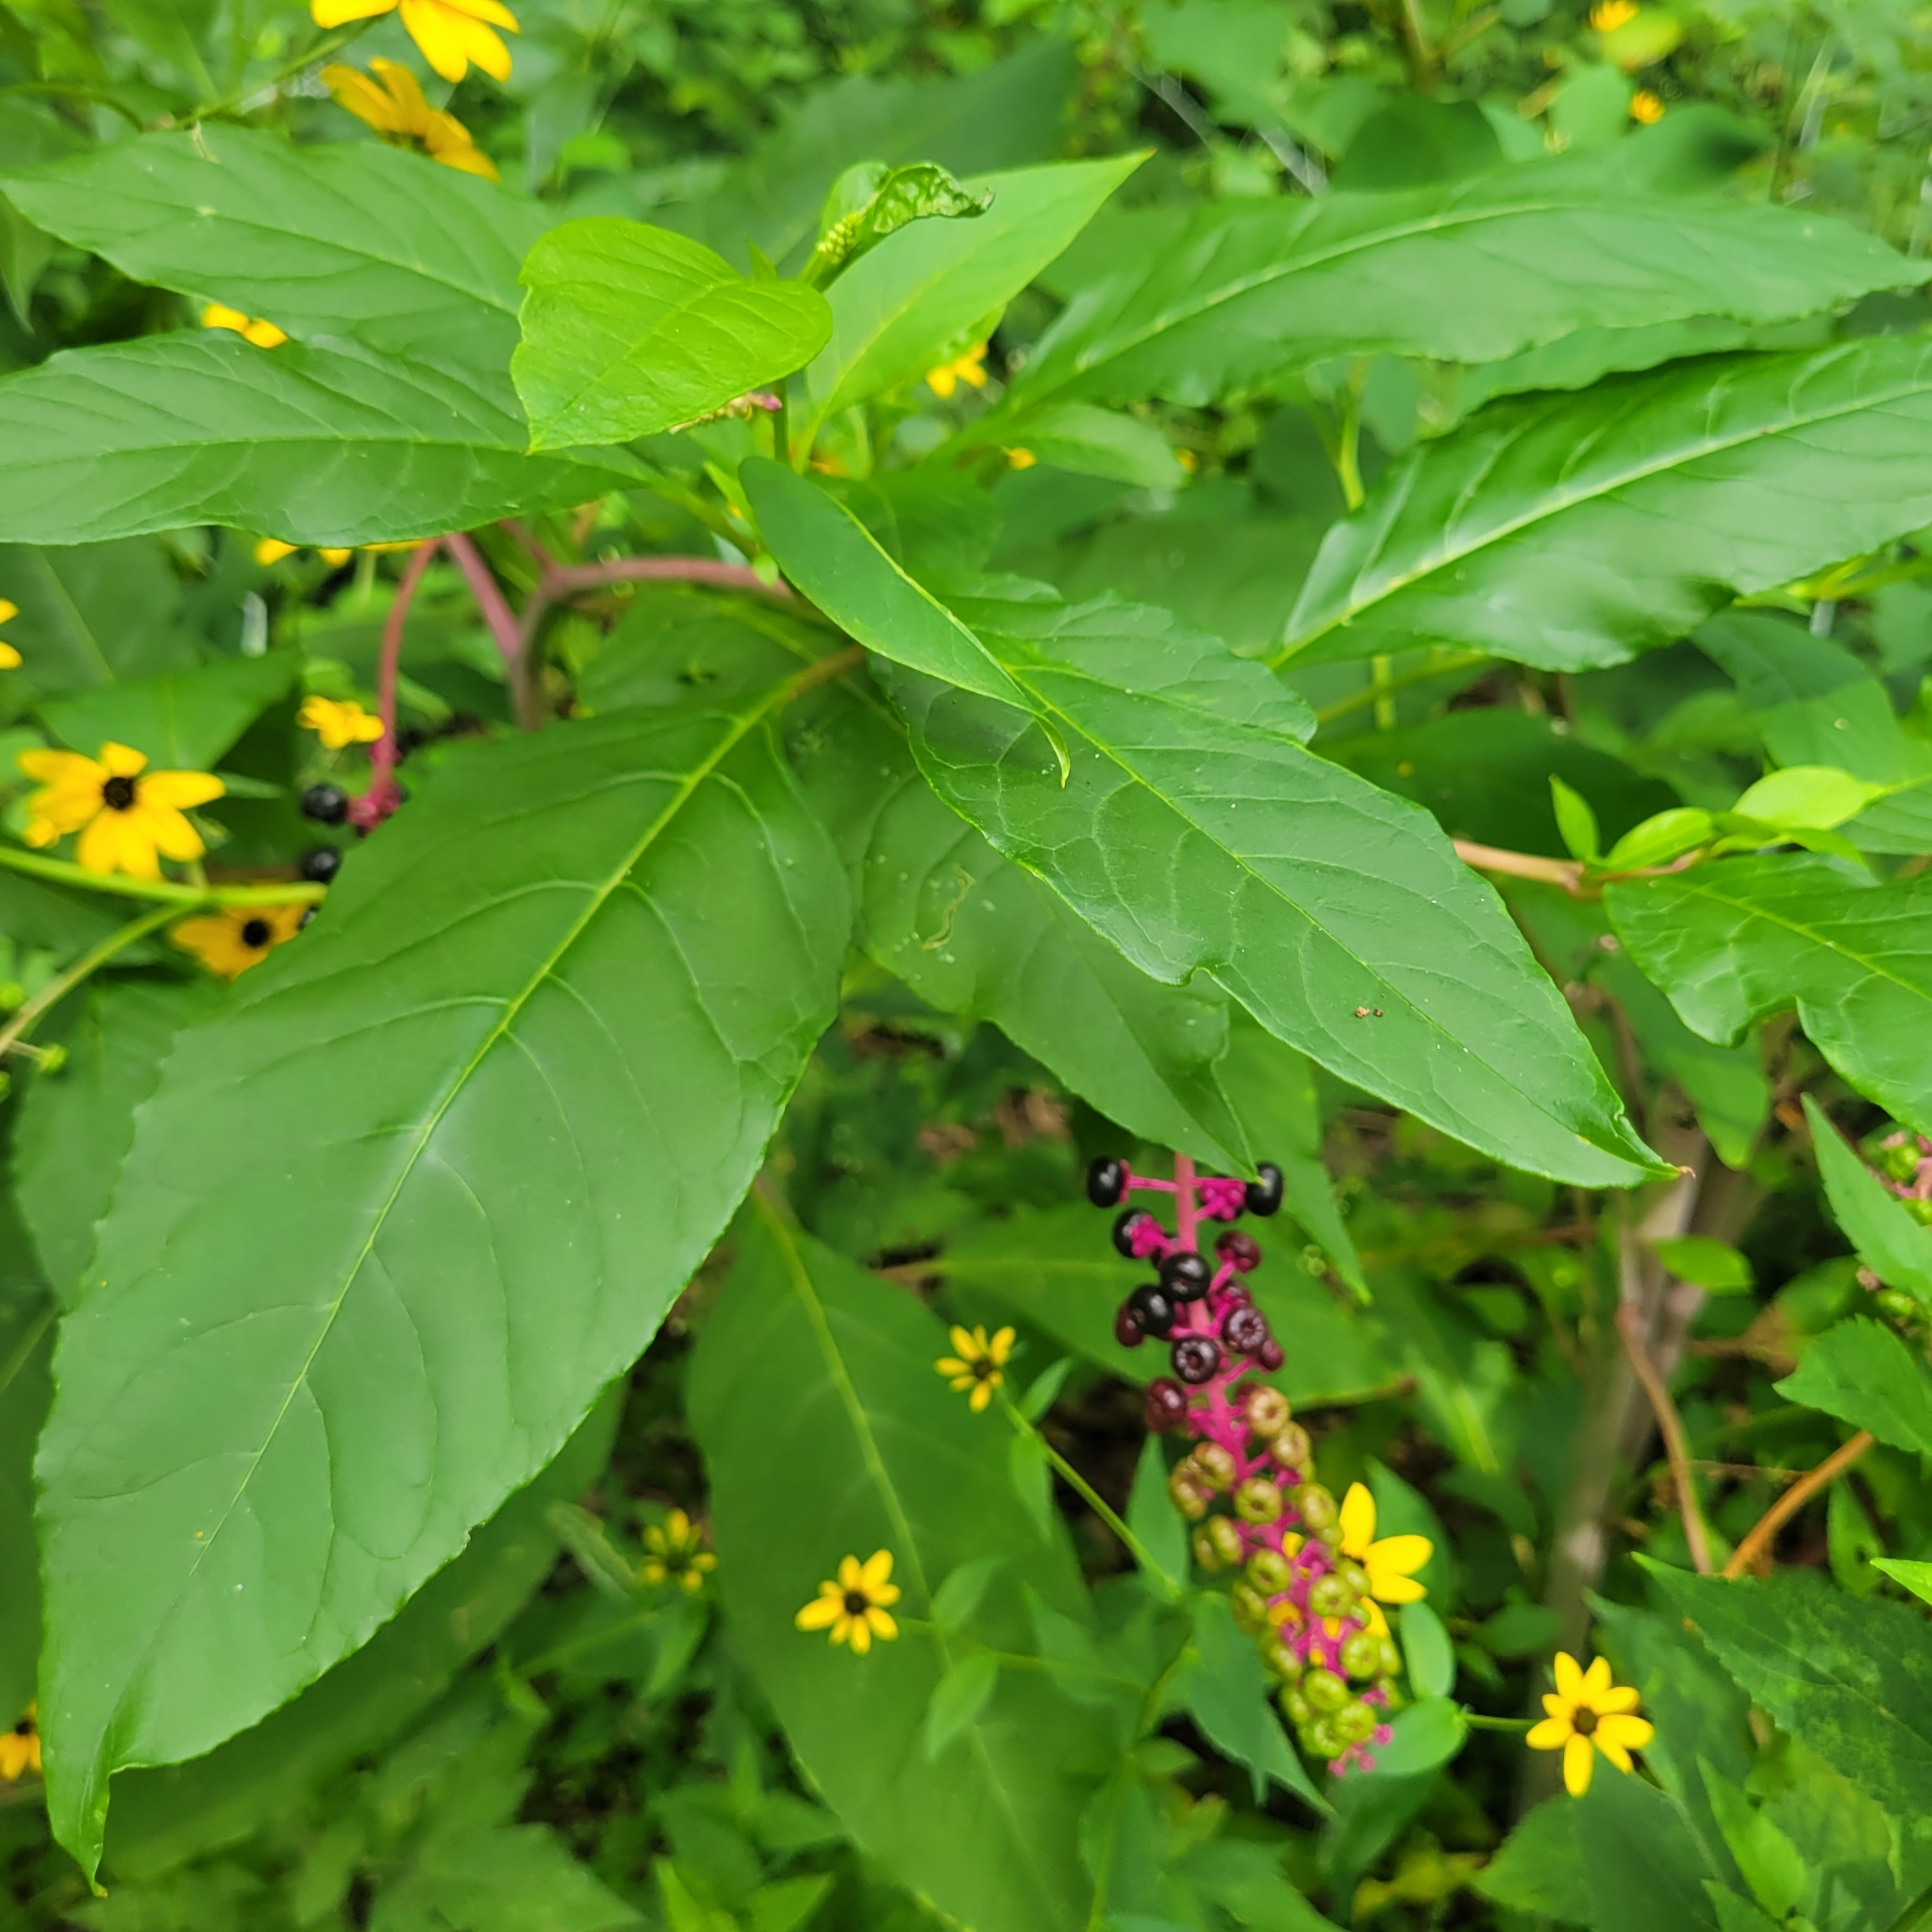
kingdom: Plantae
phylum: Tracheophyta
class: Magnoliopsida
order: Caryophyllales
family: Phytolaccaceae
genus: Phytolacca
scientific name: Phytolacca americana
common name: American pokeweed
